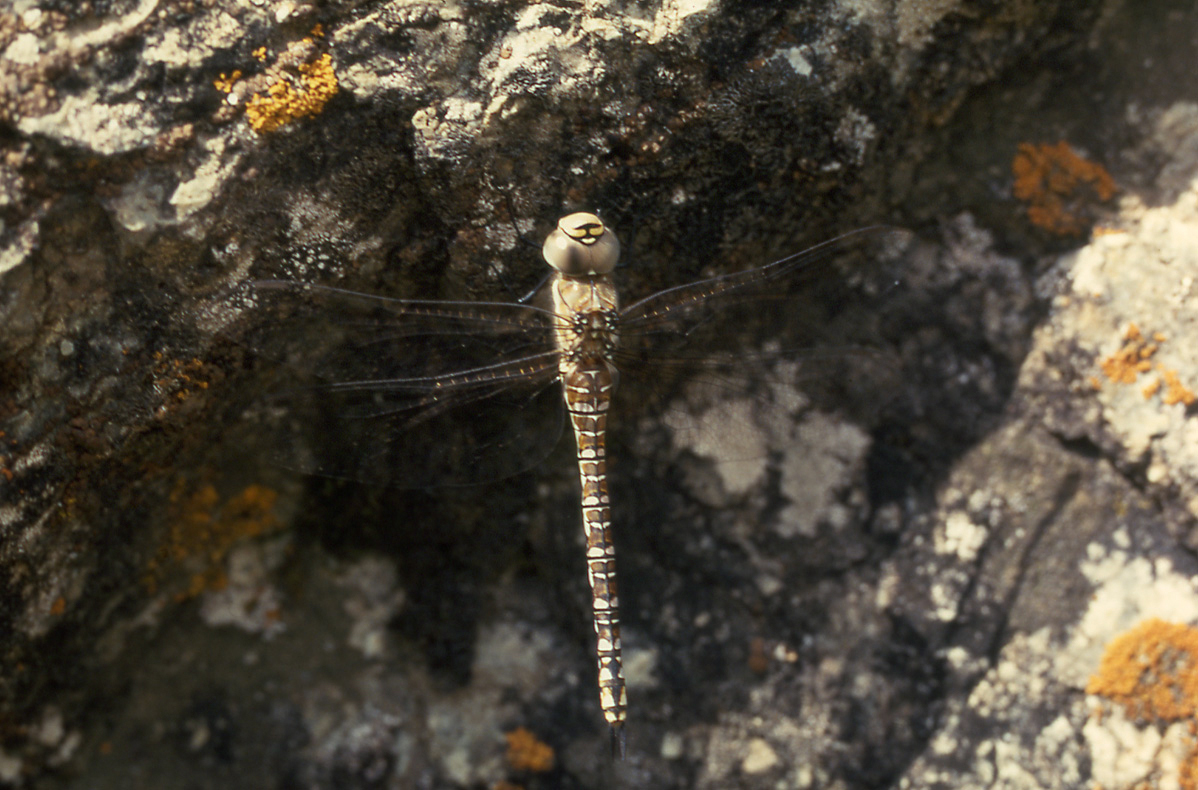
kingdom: Animalia
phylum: Arthropoda
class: Insecta
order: Odonata
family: Aeshnidae
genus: Aeshna
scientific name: Aeshna mixta
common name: Migrant hawker
